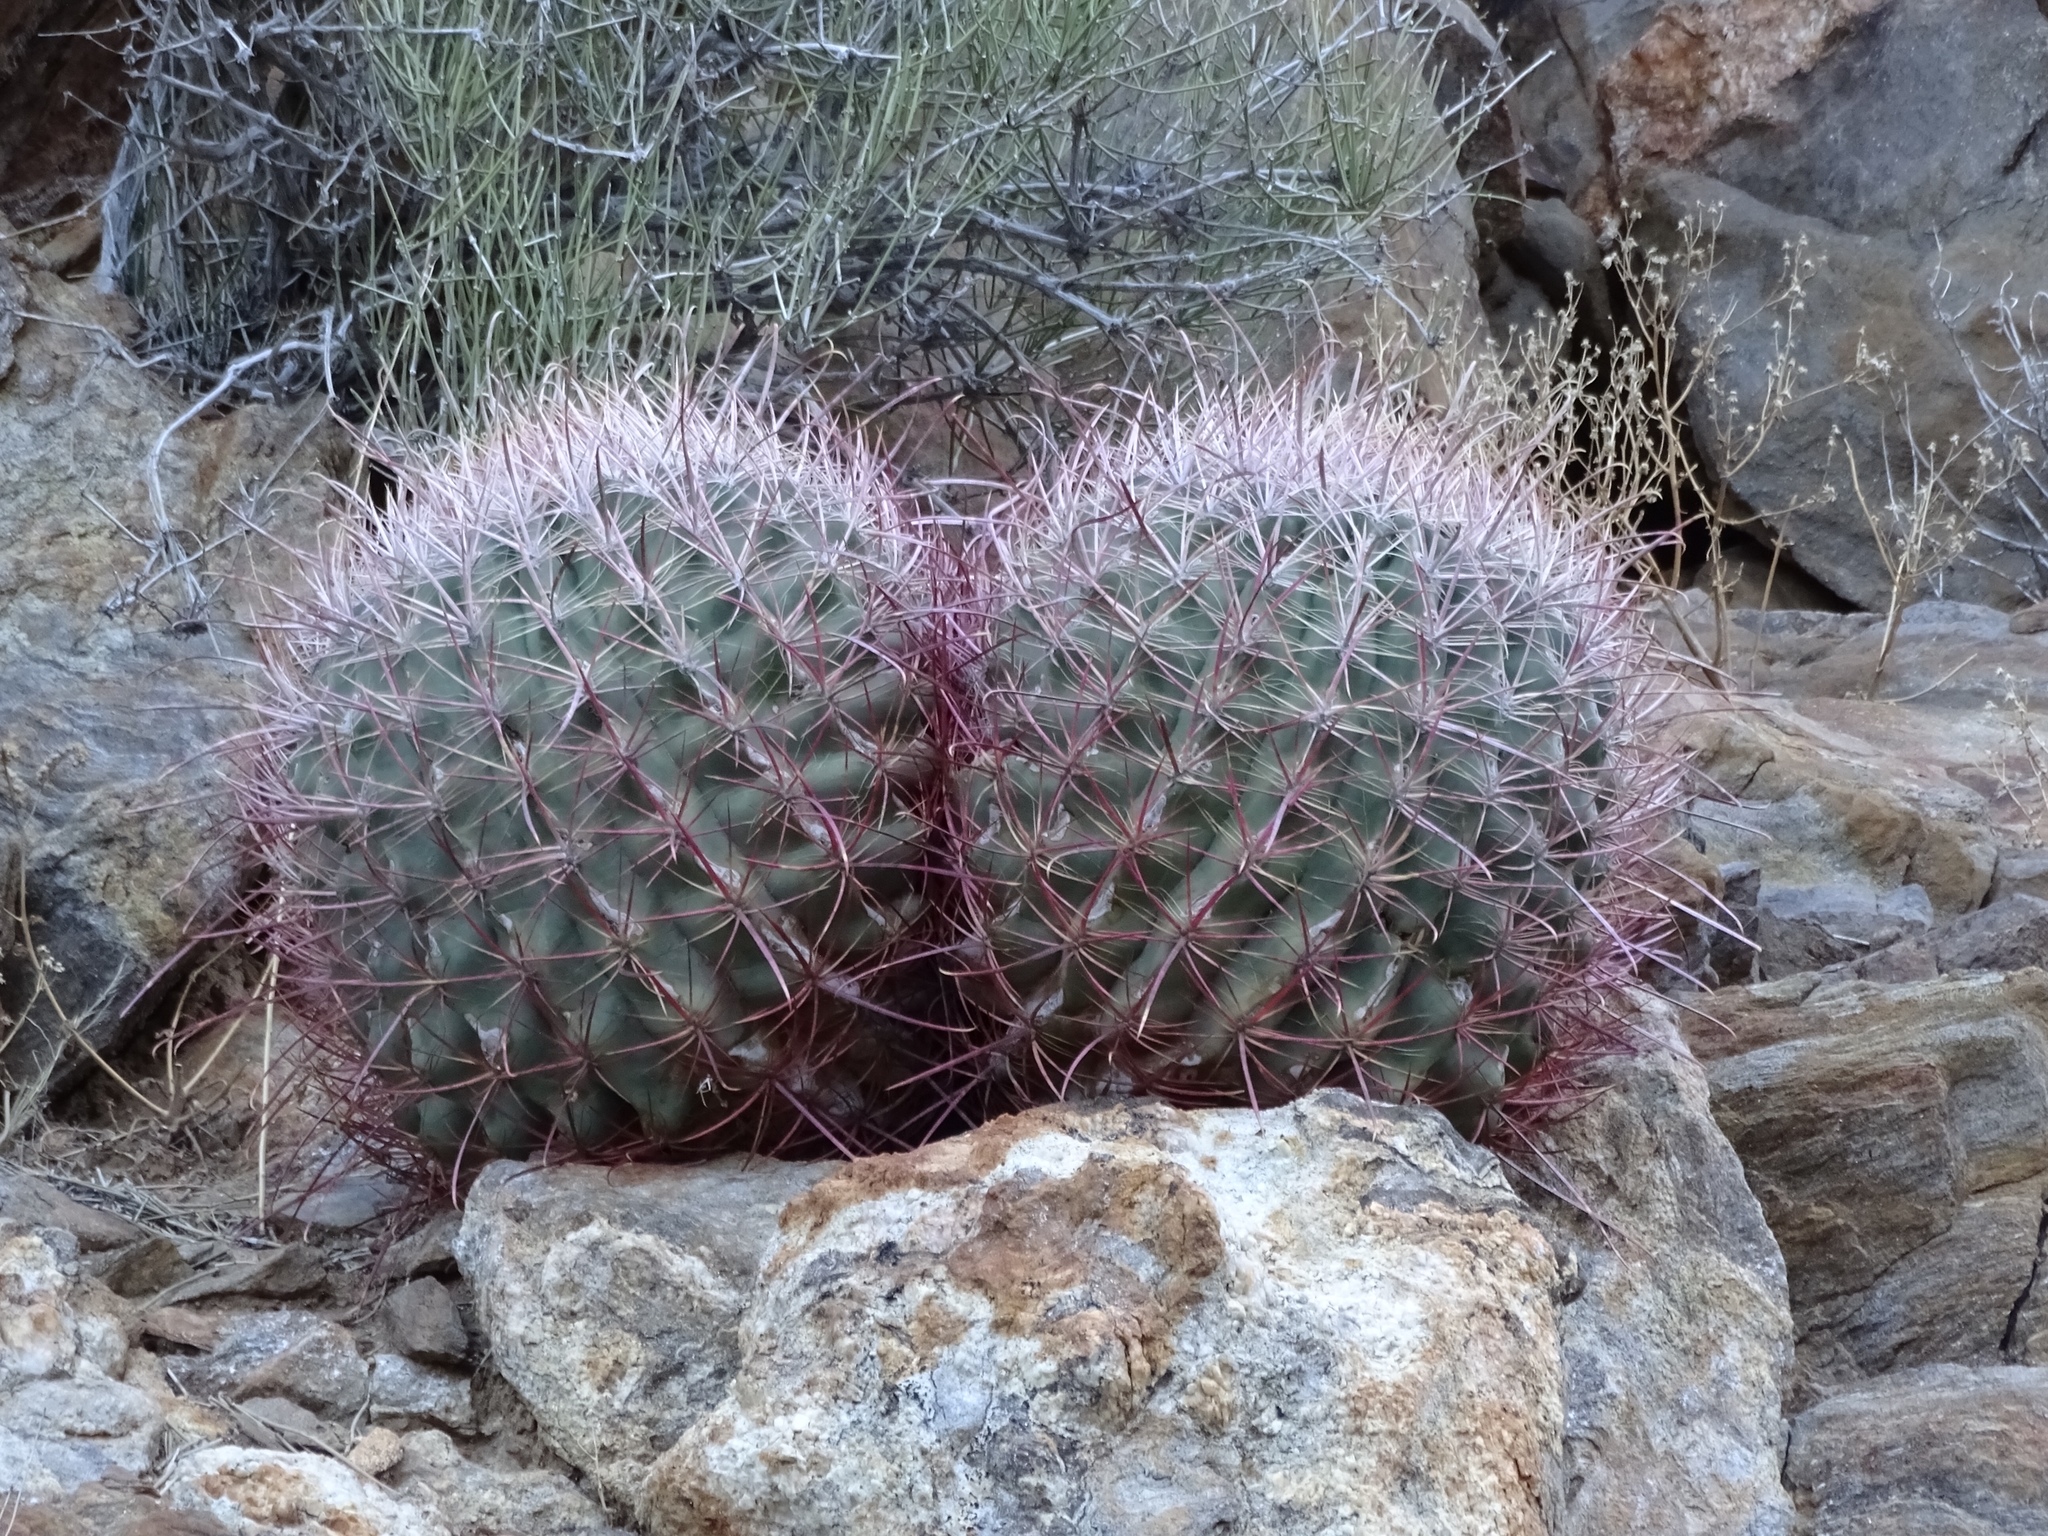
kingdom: Plantae
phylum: Tracheophyta
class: Magnoliopsida
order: Caryophyllales
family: Cactaceae
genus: Ferocactus
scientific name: Ferocactus cylindraceus
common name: California barrel cactus
